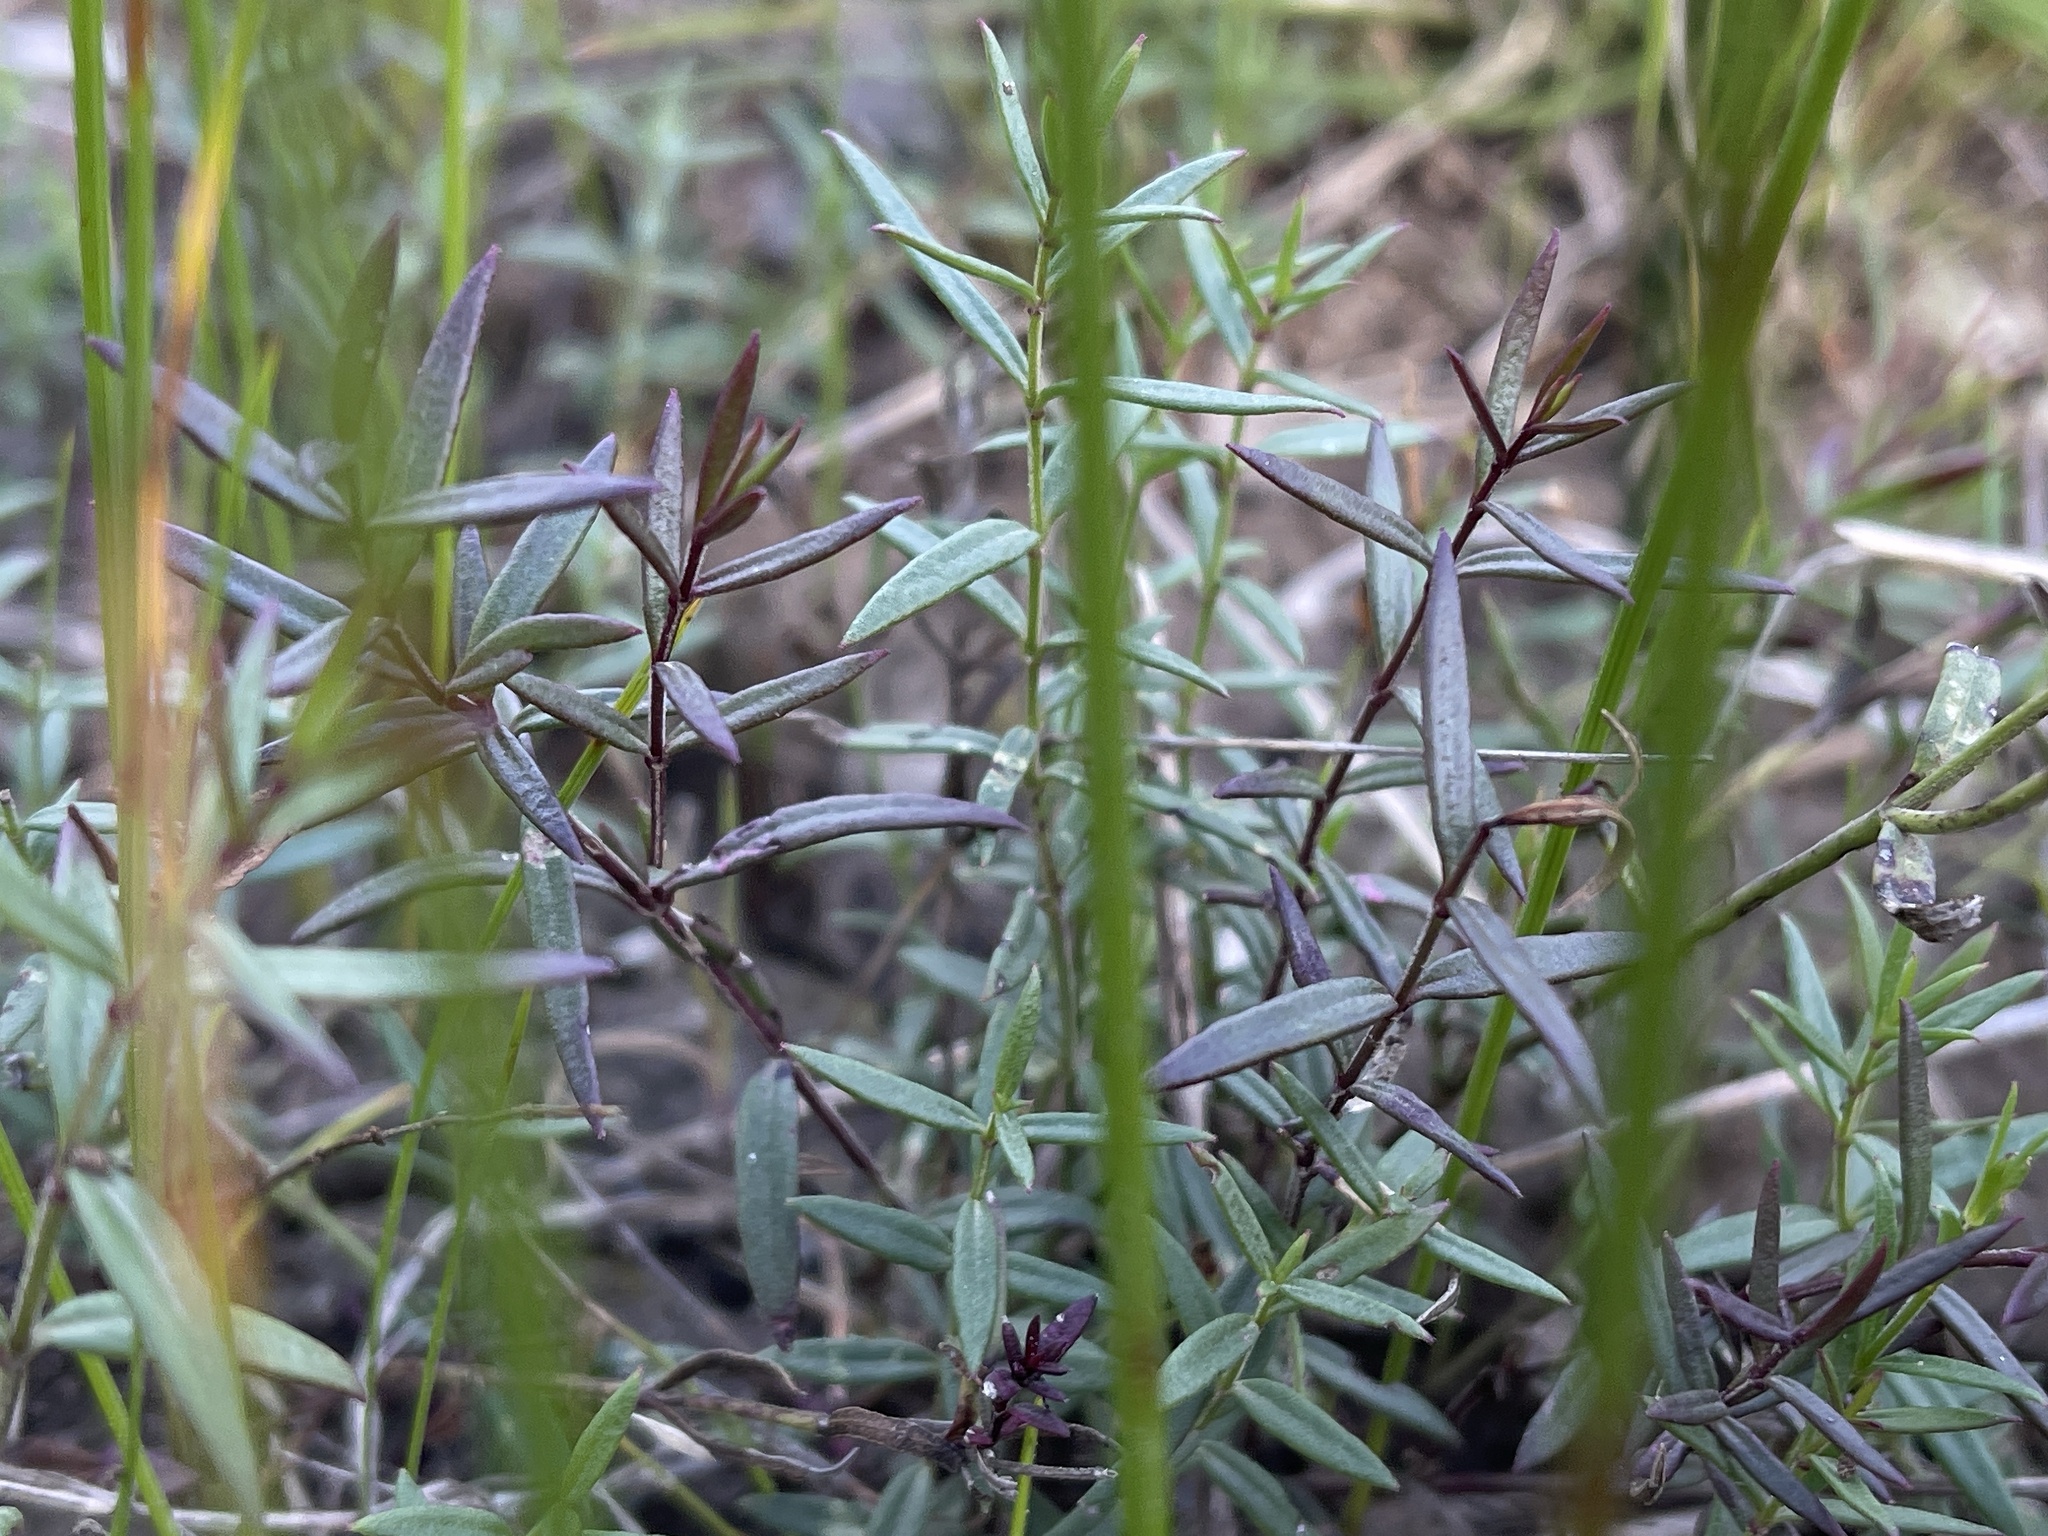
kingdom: Plantae
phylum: Tracheophyta
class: Magnoliopsida
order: Lamiales
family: Plantaginaceae
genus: Veronica
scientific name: Veronica gracilis
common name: Slender speedwell
